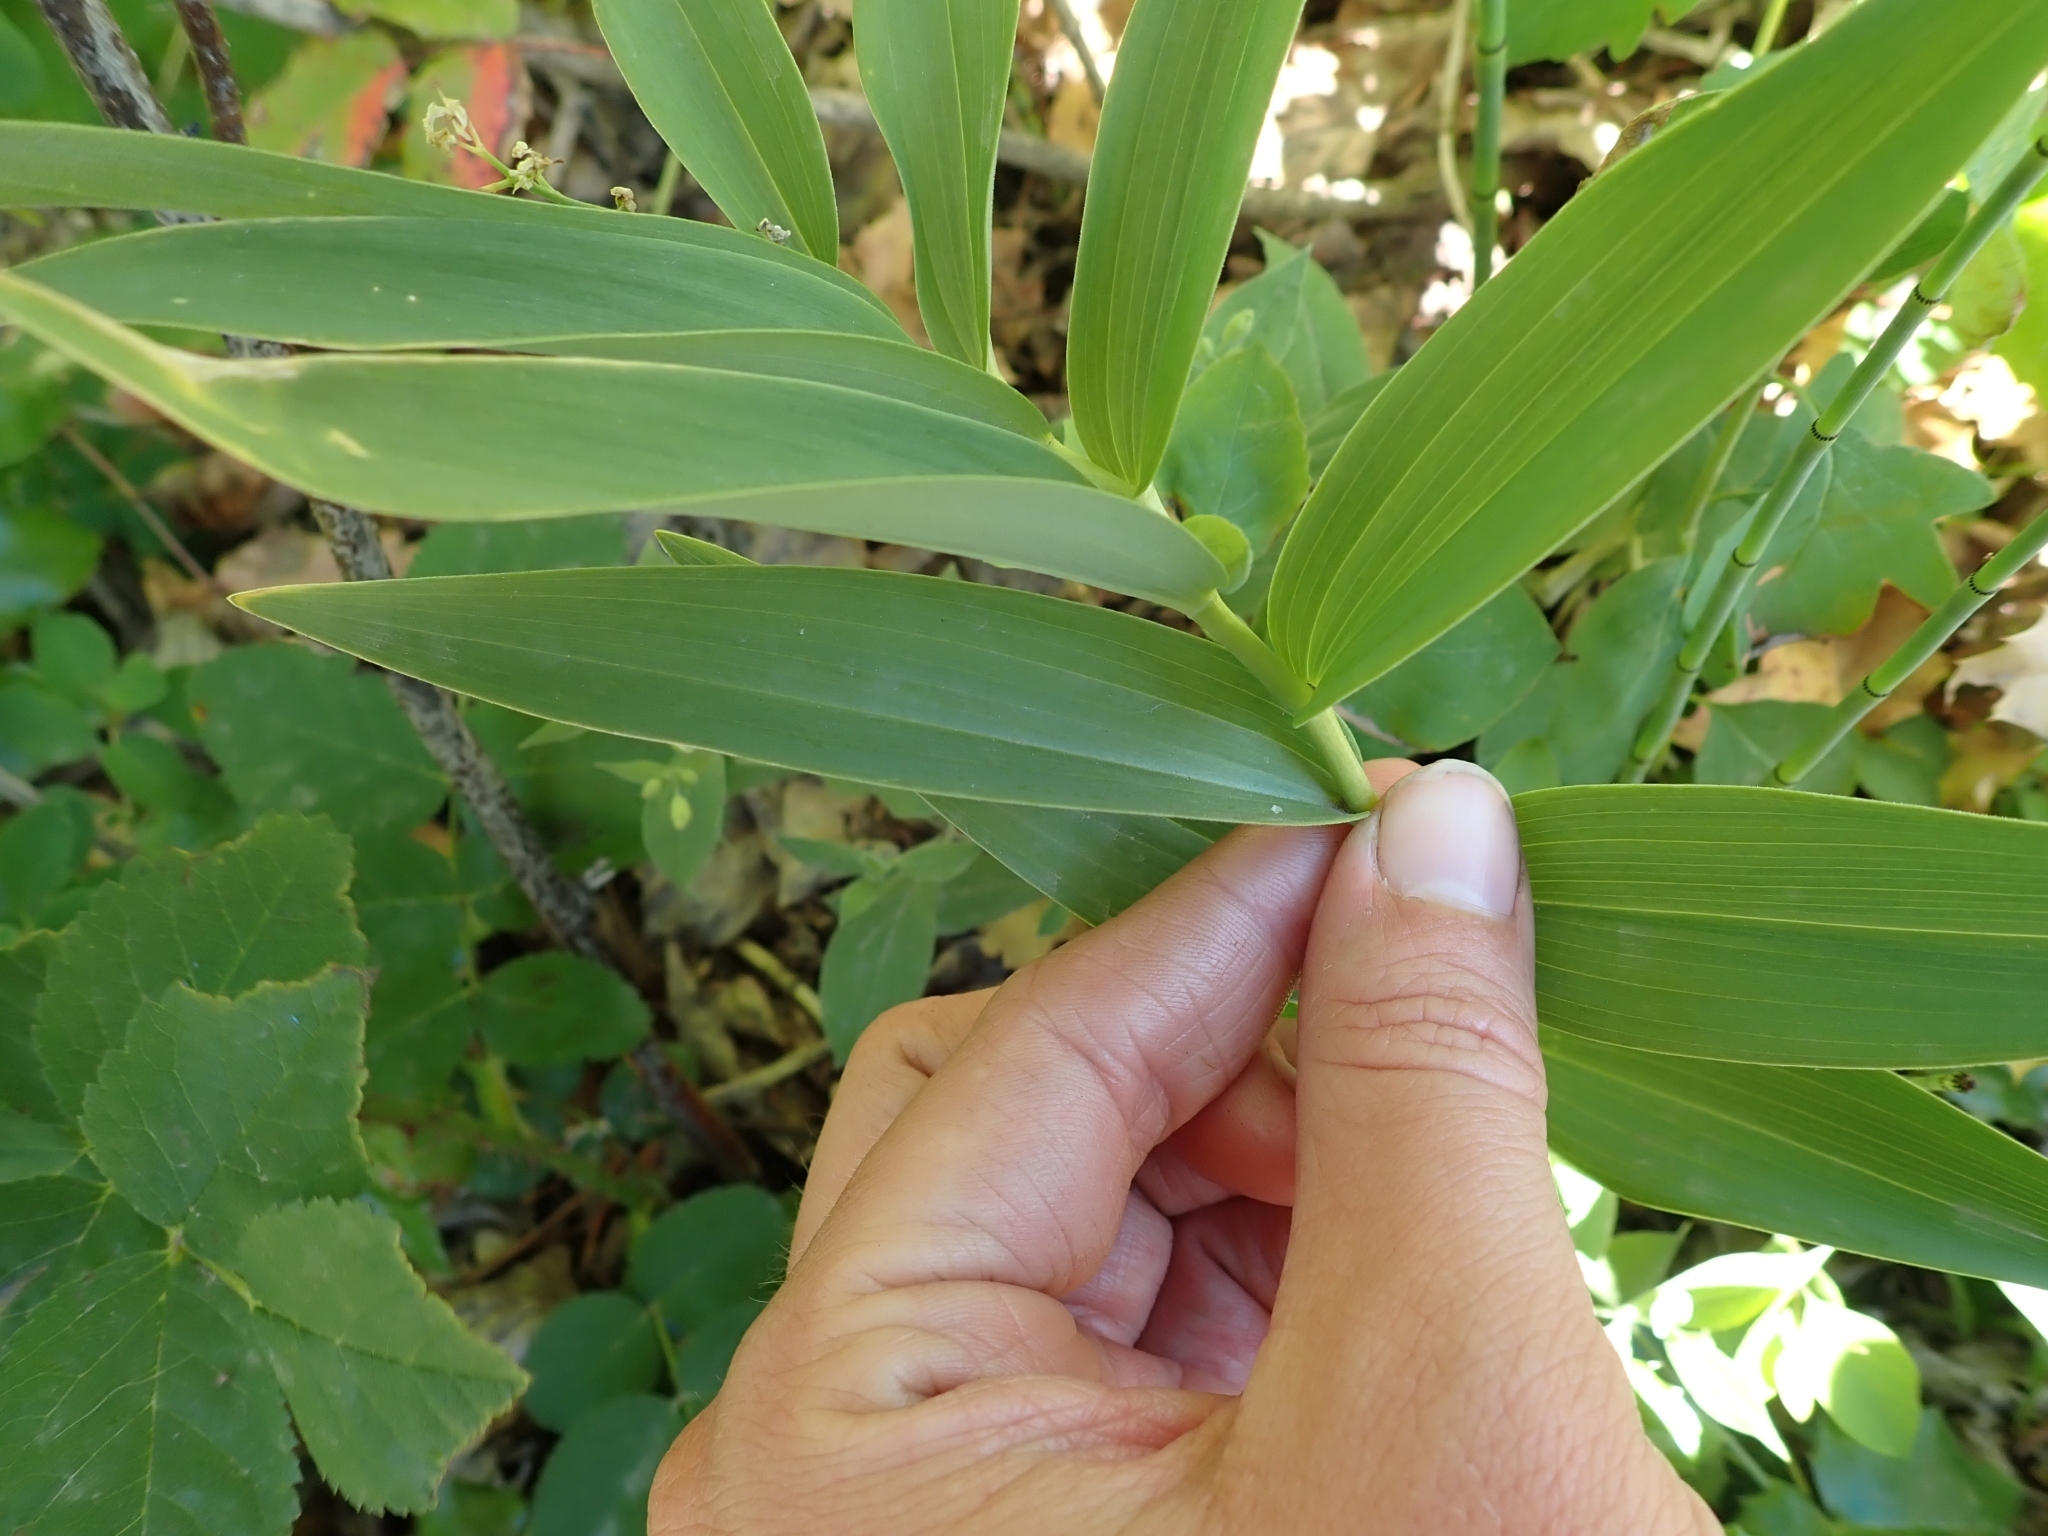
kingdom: Plantae
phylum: Tracheophyta
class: Liliopsida
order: Asparagales
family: Asparagaceae
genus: Maianthemum
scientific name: Maianthemum stellatum
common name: Little false solomon's seal
